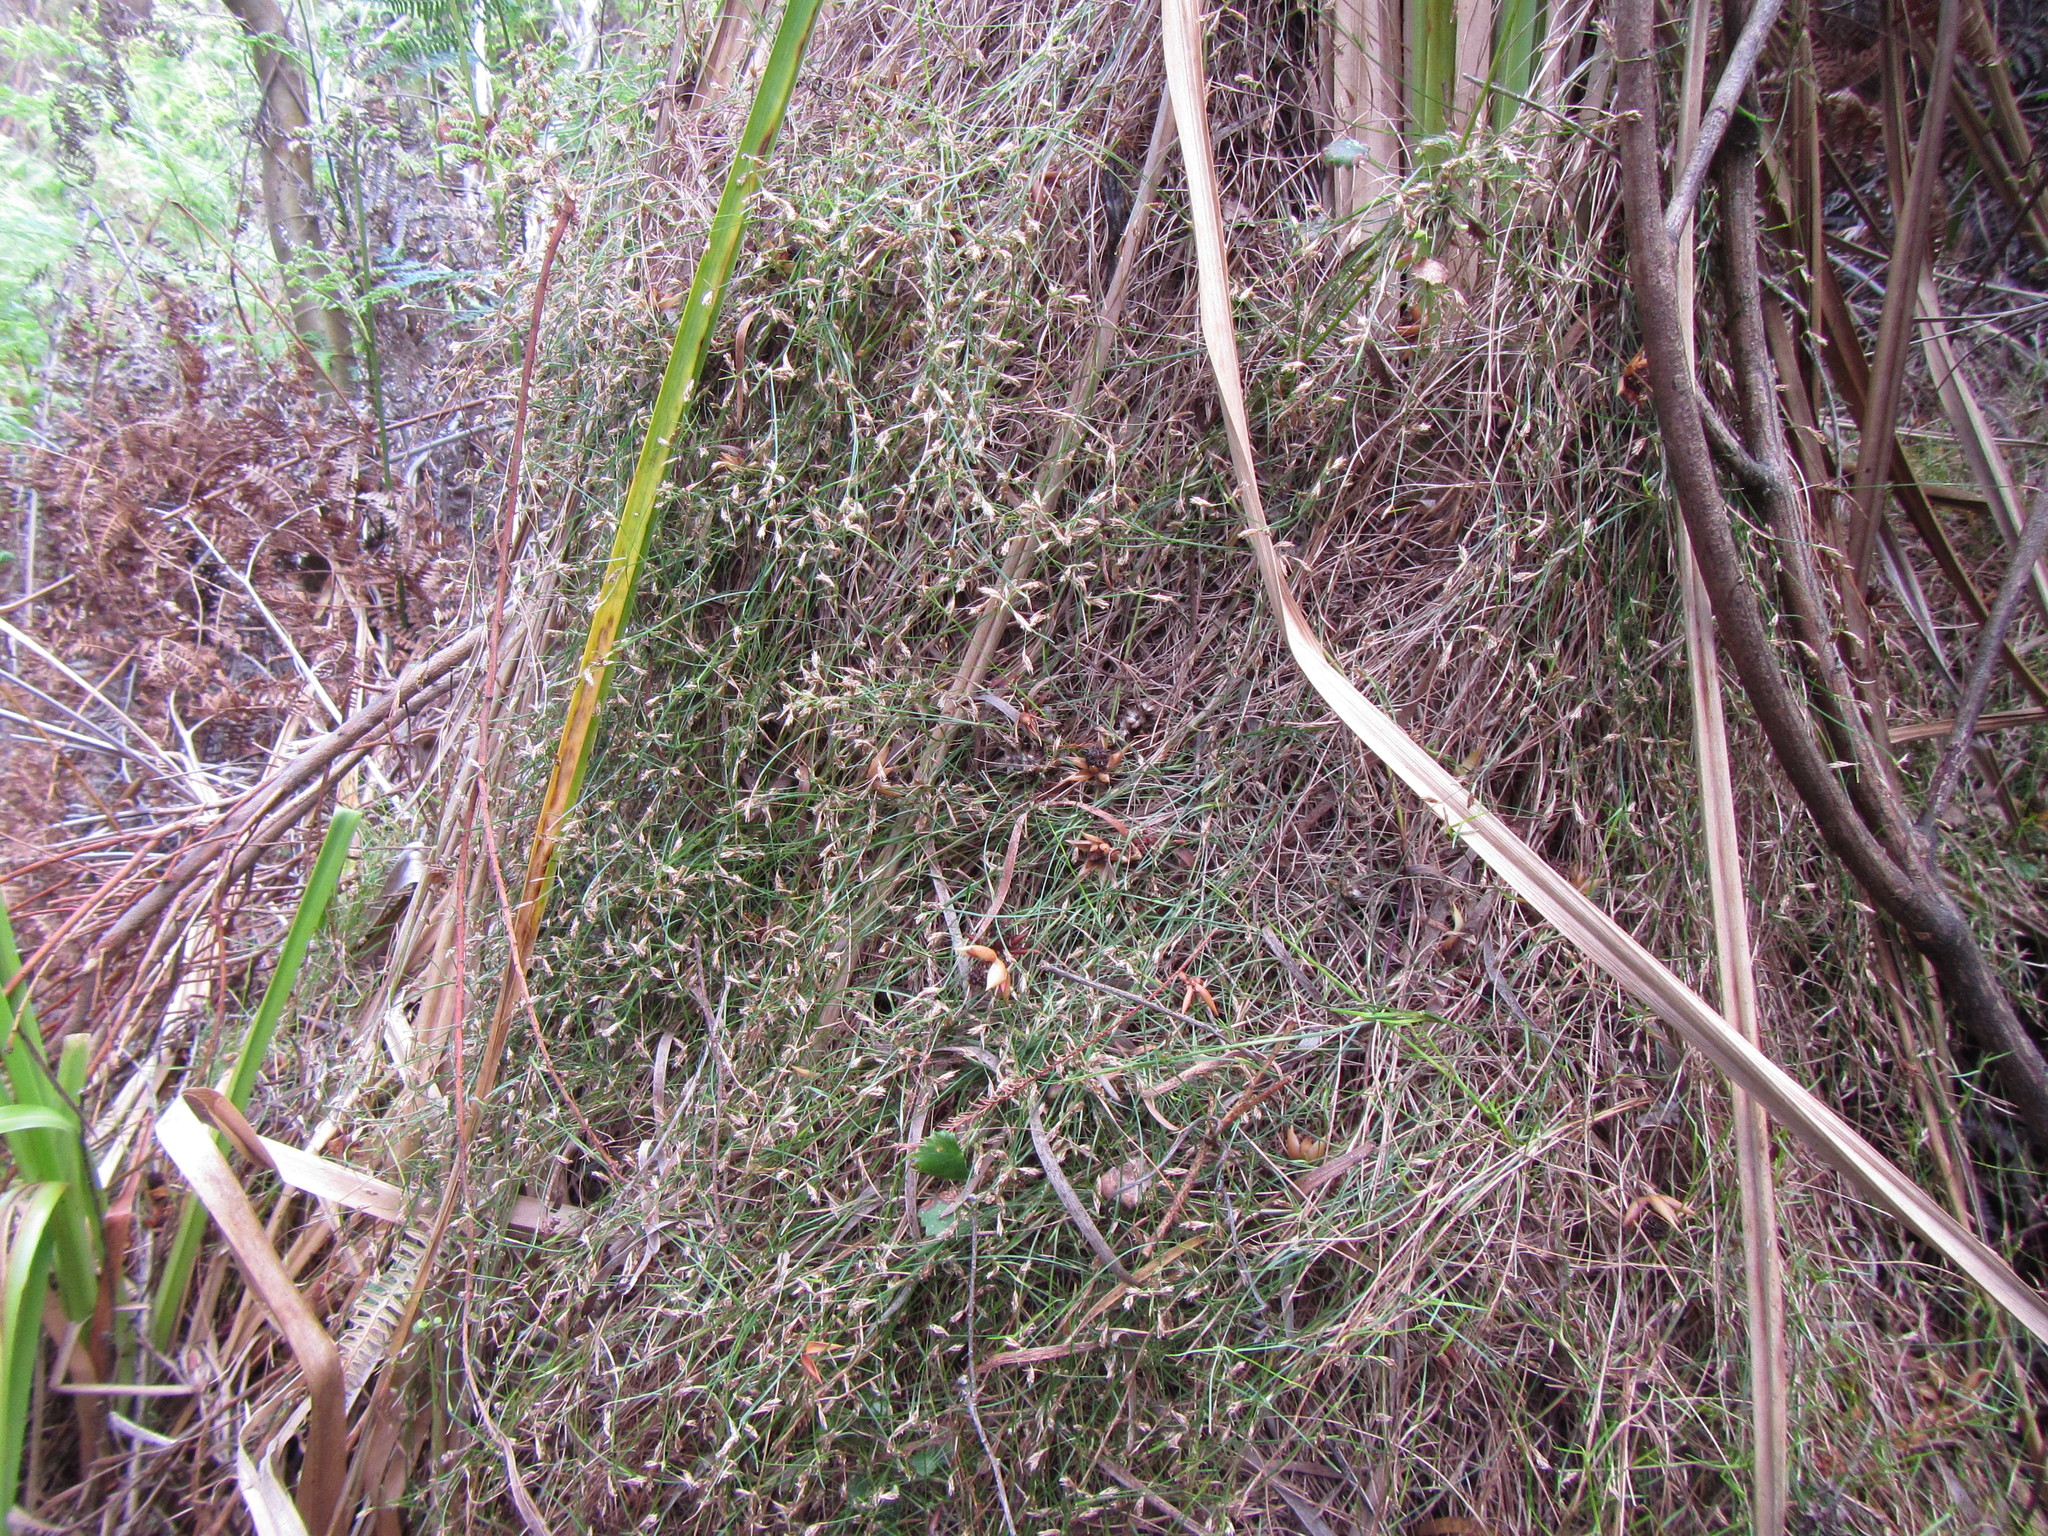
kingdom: Plantae
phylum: Tracheophyta
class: Liliopsida
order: Poales
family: Restionaceae
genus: Anthochortus
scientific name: Anthochortus graminifolius
